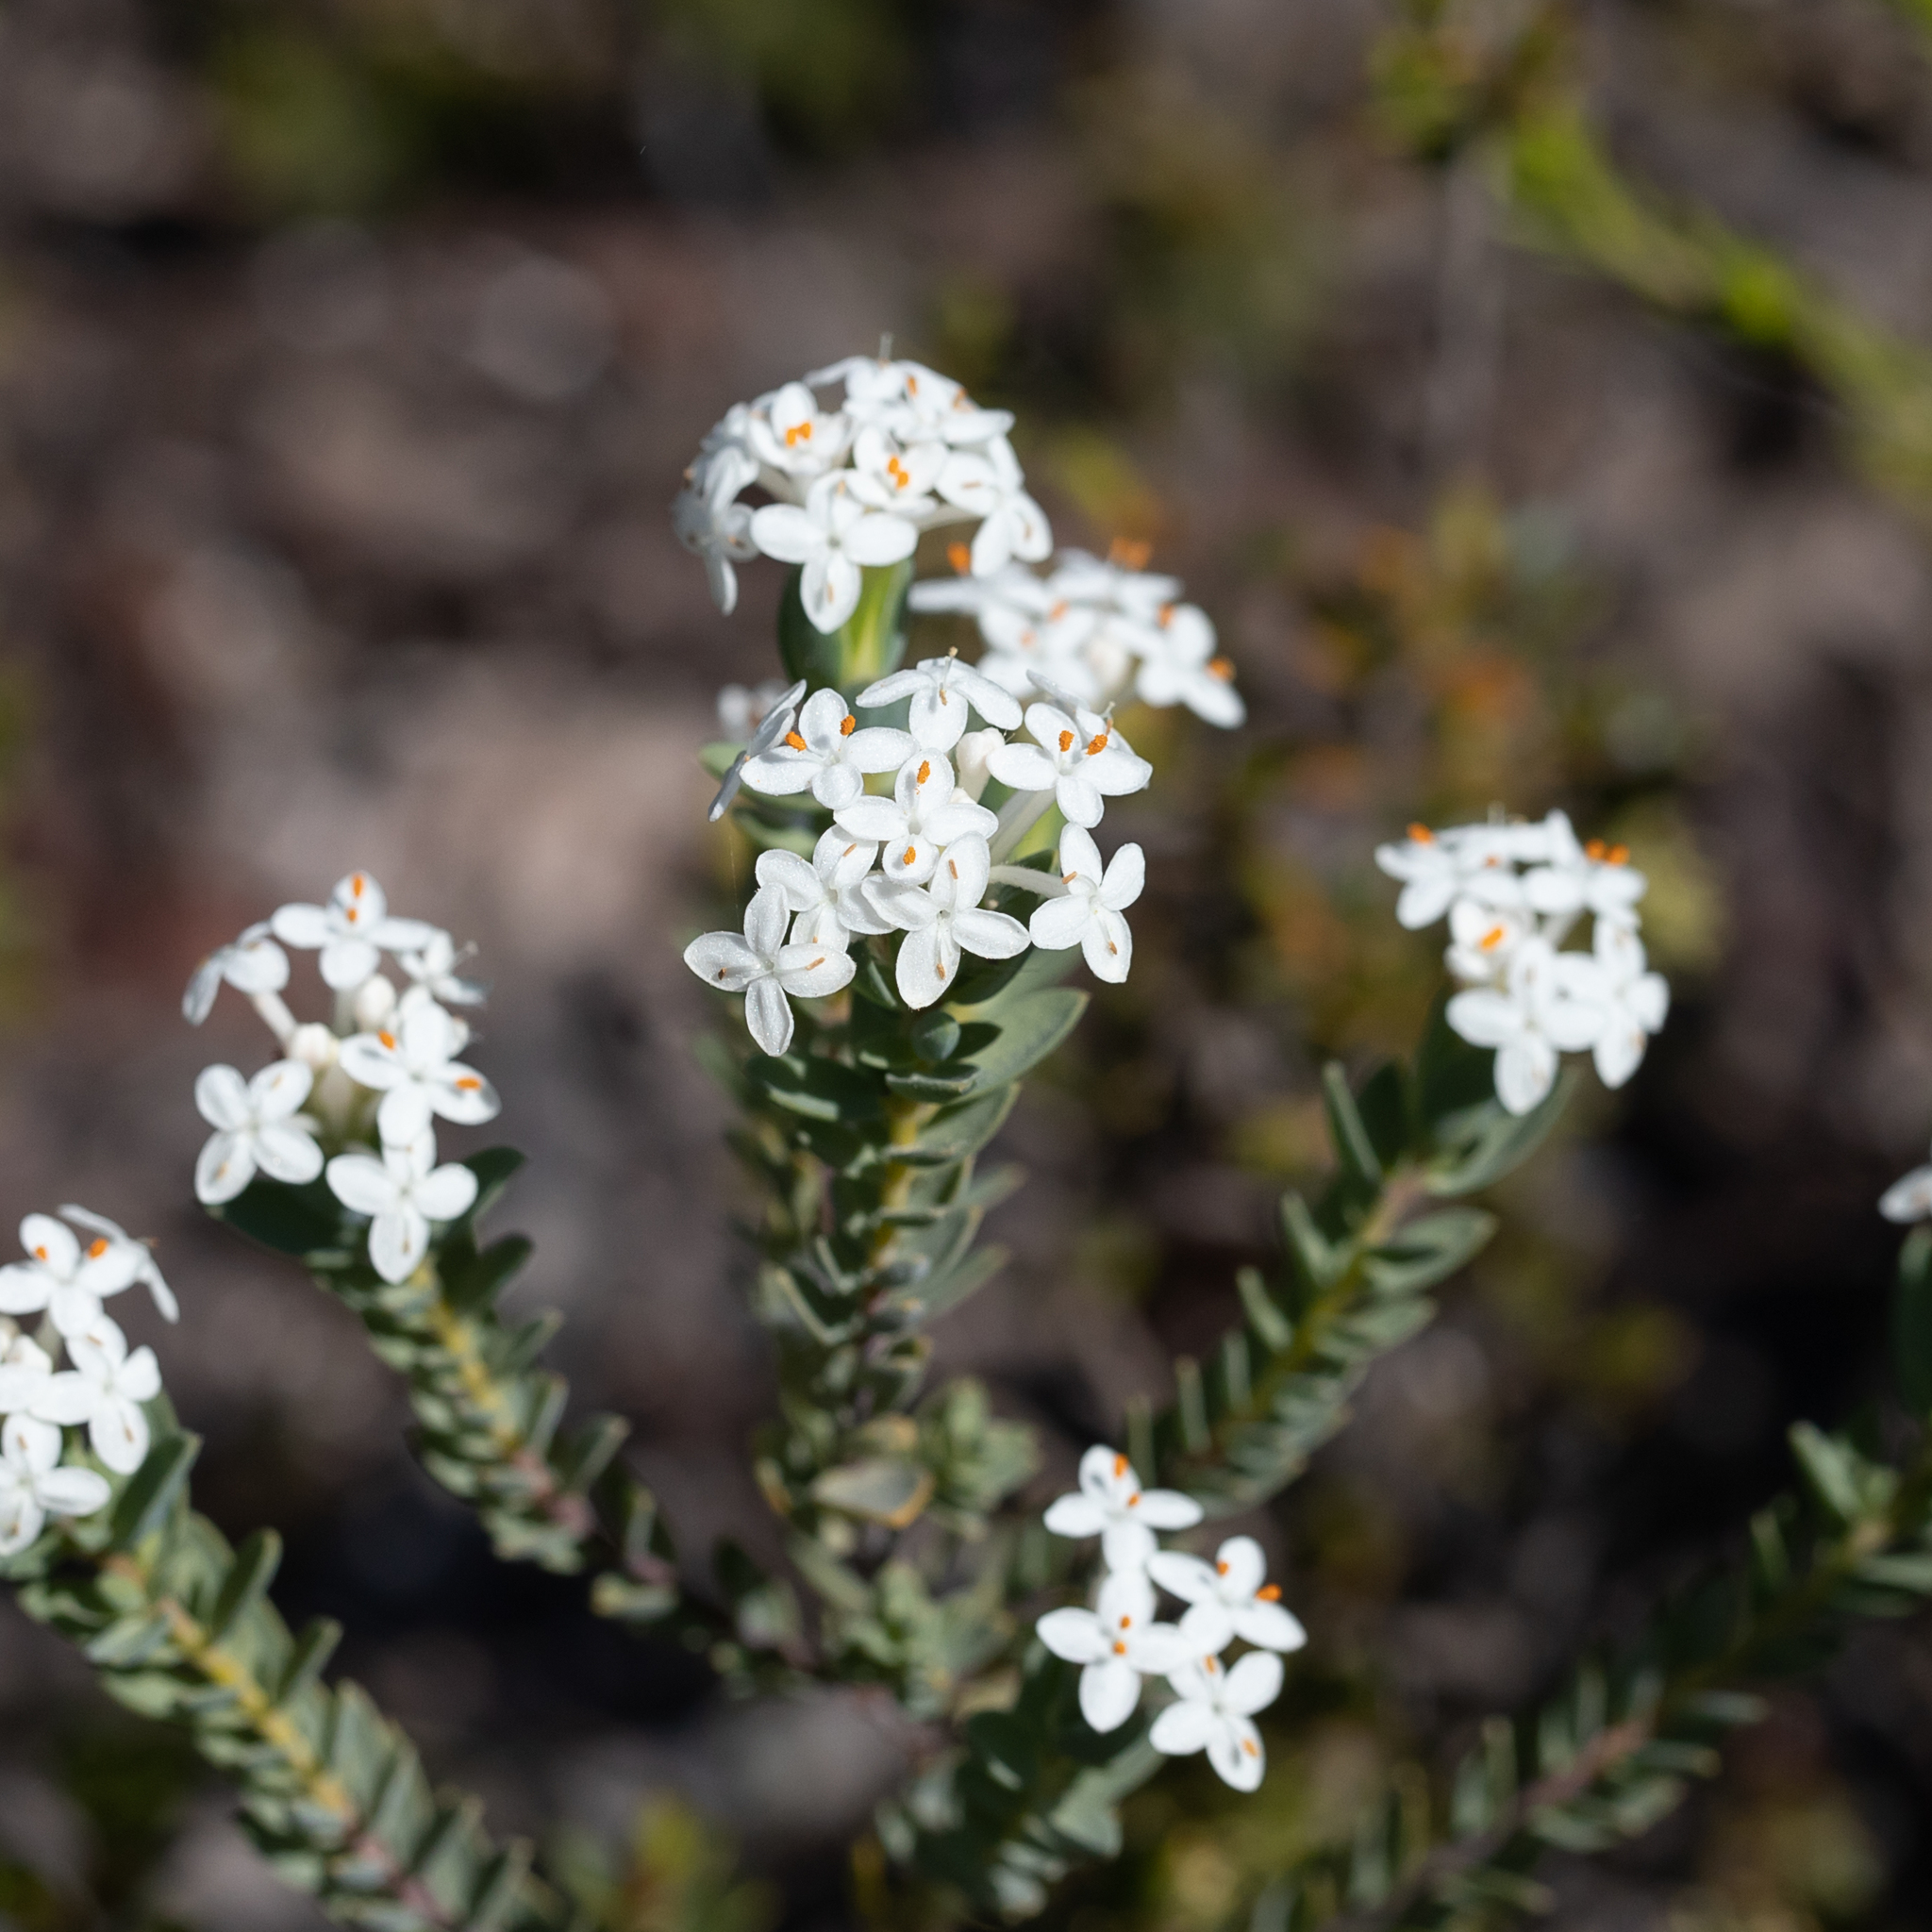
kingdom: Plantae
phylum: Tracheophyta
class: Magnoliopsida
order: Malvales
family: Thymelaeaceae
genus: Pimelea
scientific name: Pimelea glauca
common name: Smooth riceflower
